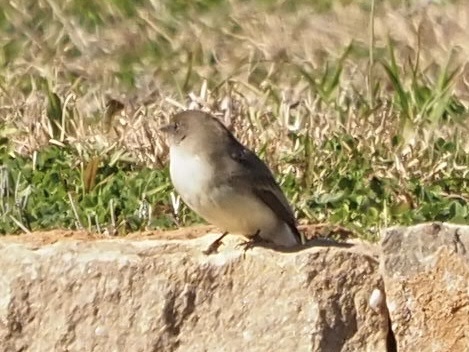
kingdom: Animalia
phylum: Chordata
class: Aves
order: Passeriformes
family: Tyrannidae
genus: Sayornis
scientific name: Sayornis phoebe
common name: Eastern phoebe
